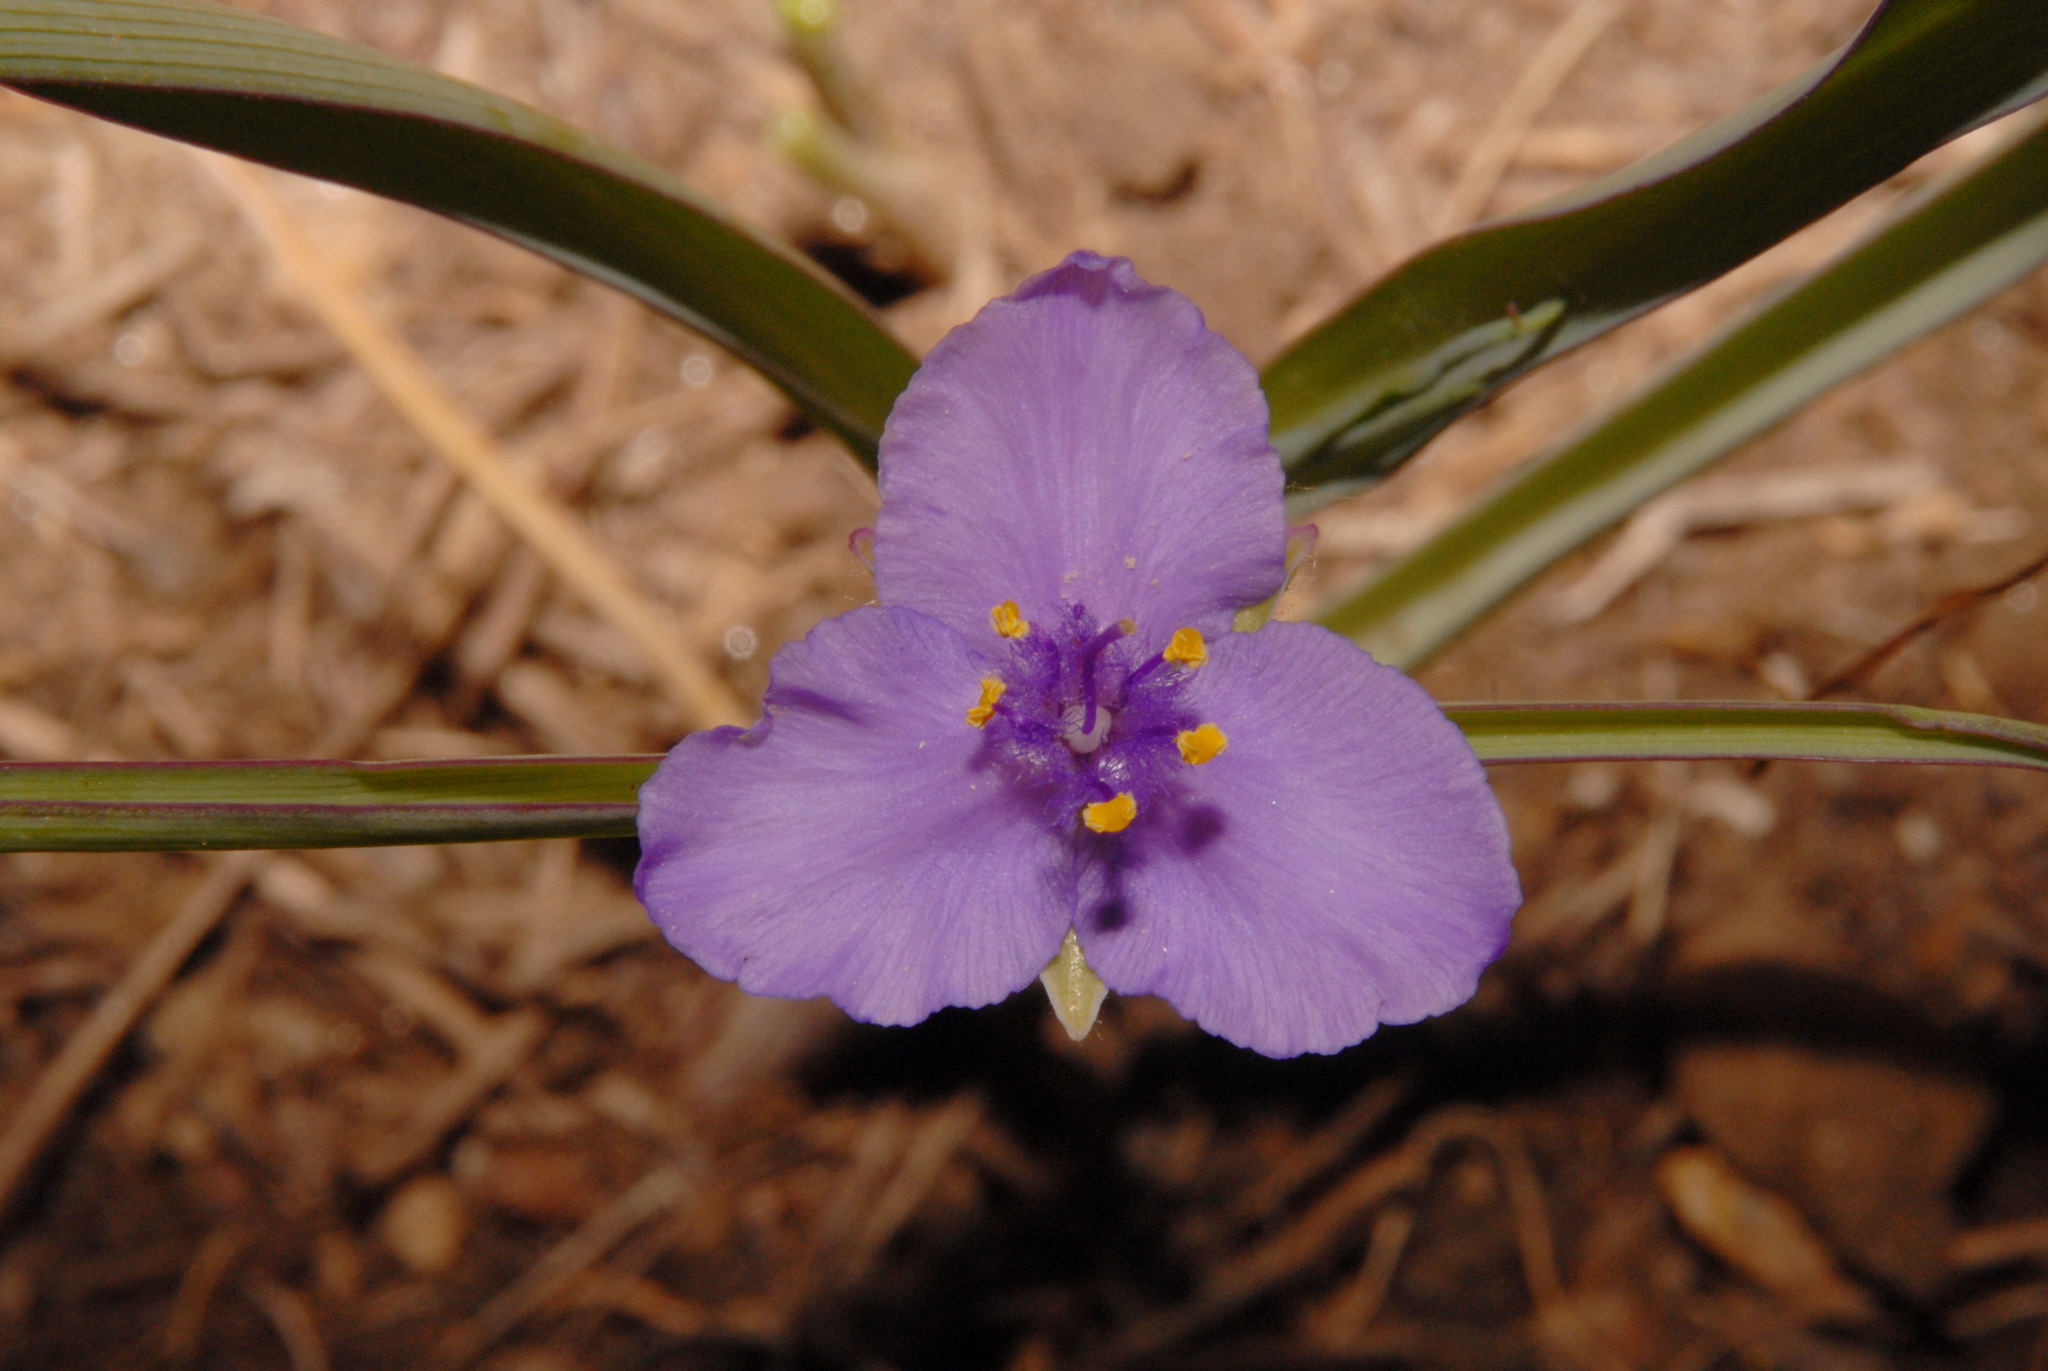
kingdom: Plantae
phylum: Tracheophyta
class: Liliopsida
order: Commelinales
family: Commelinaceae
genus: Tradescantia
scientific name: Tradescantia occidentalis
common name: Prairie spiderwort
